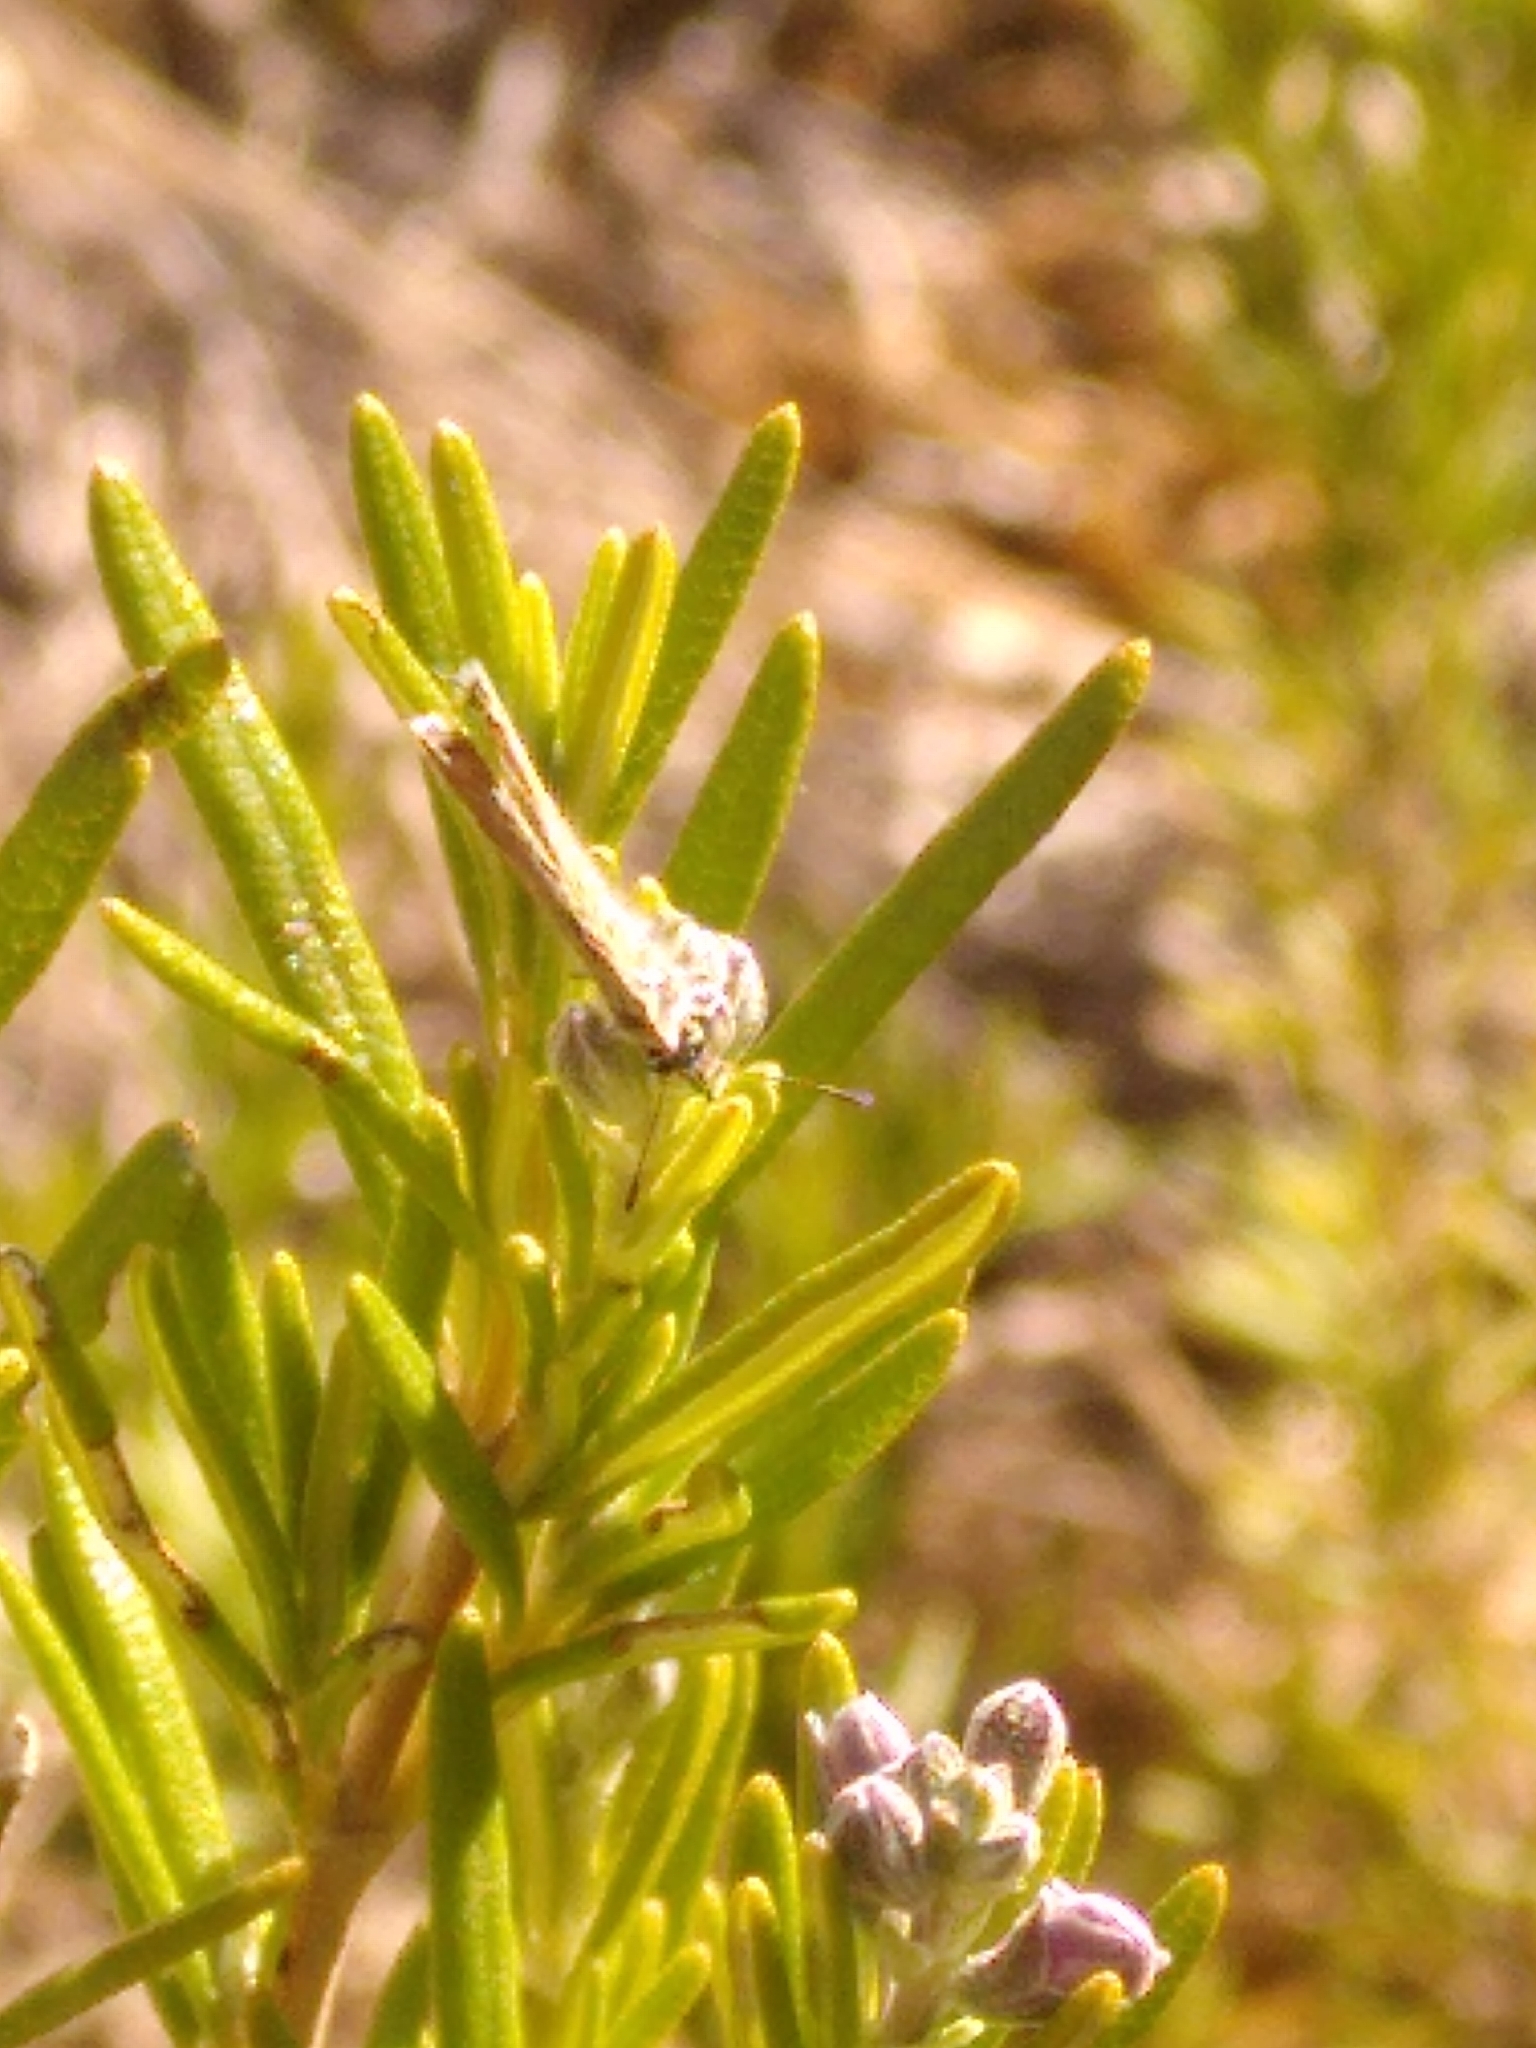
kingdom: Animalia
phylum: Arthropoda
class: Insecta
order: Lepidoptera
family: Lycaenidae
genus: Leptotes
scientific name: Leptotes pirithous
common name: Lang's short-tailed blue
